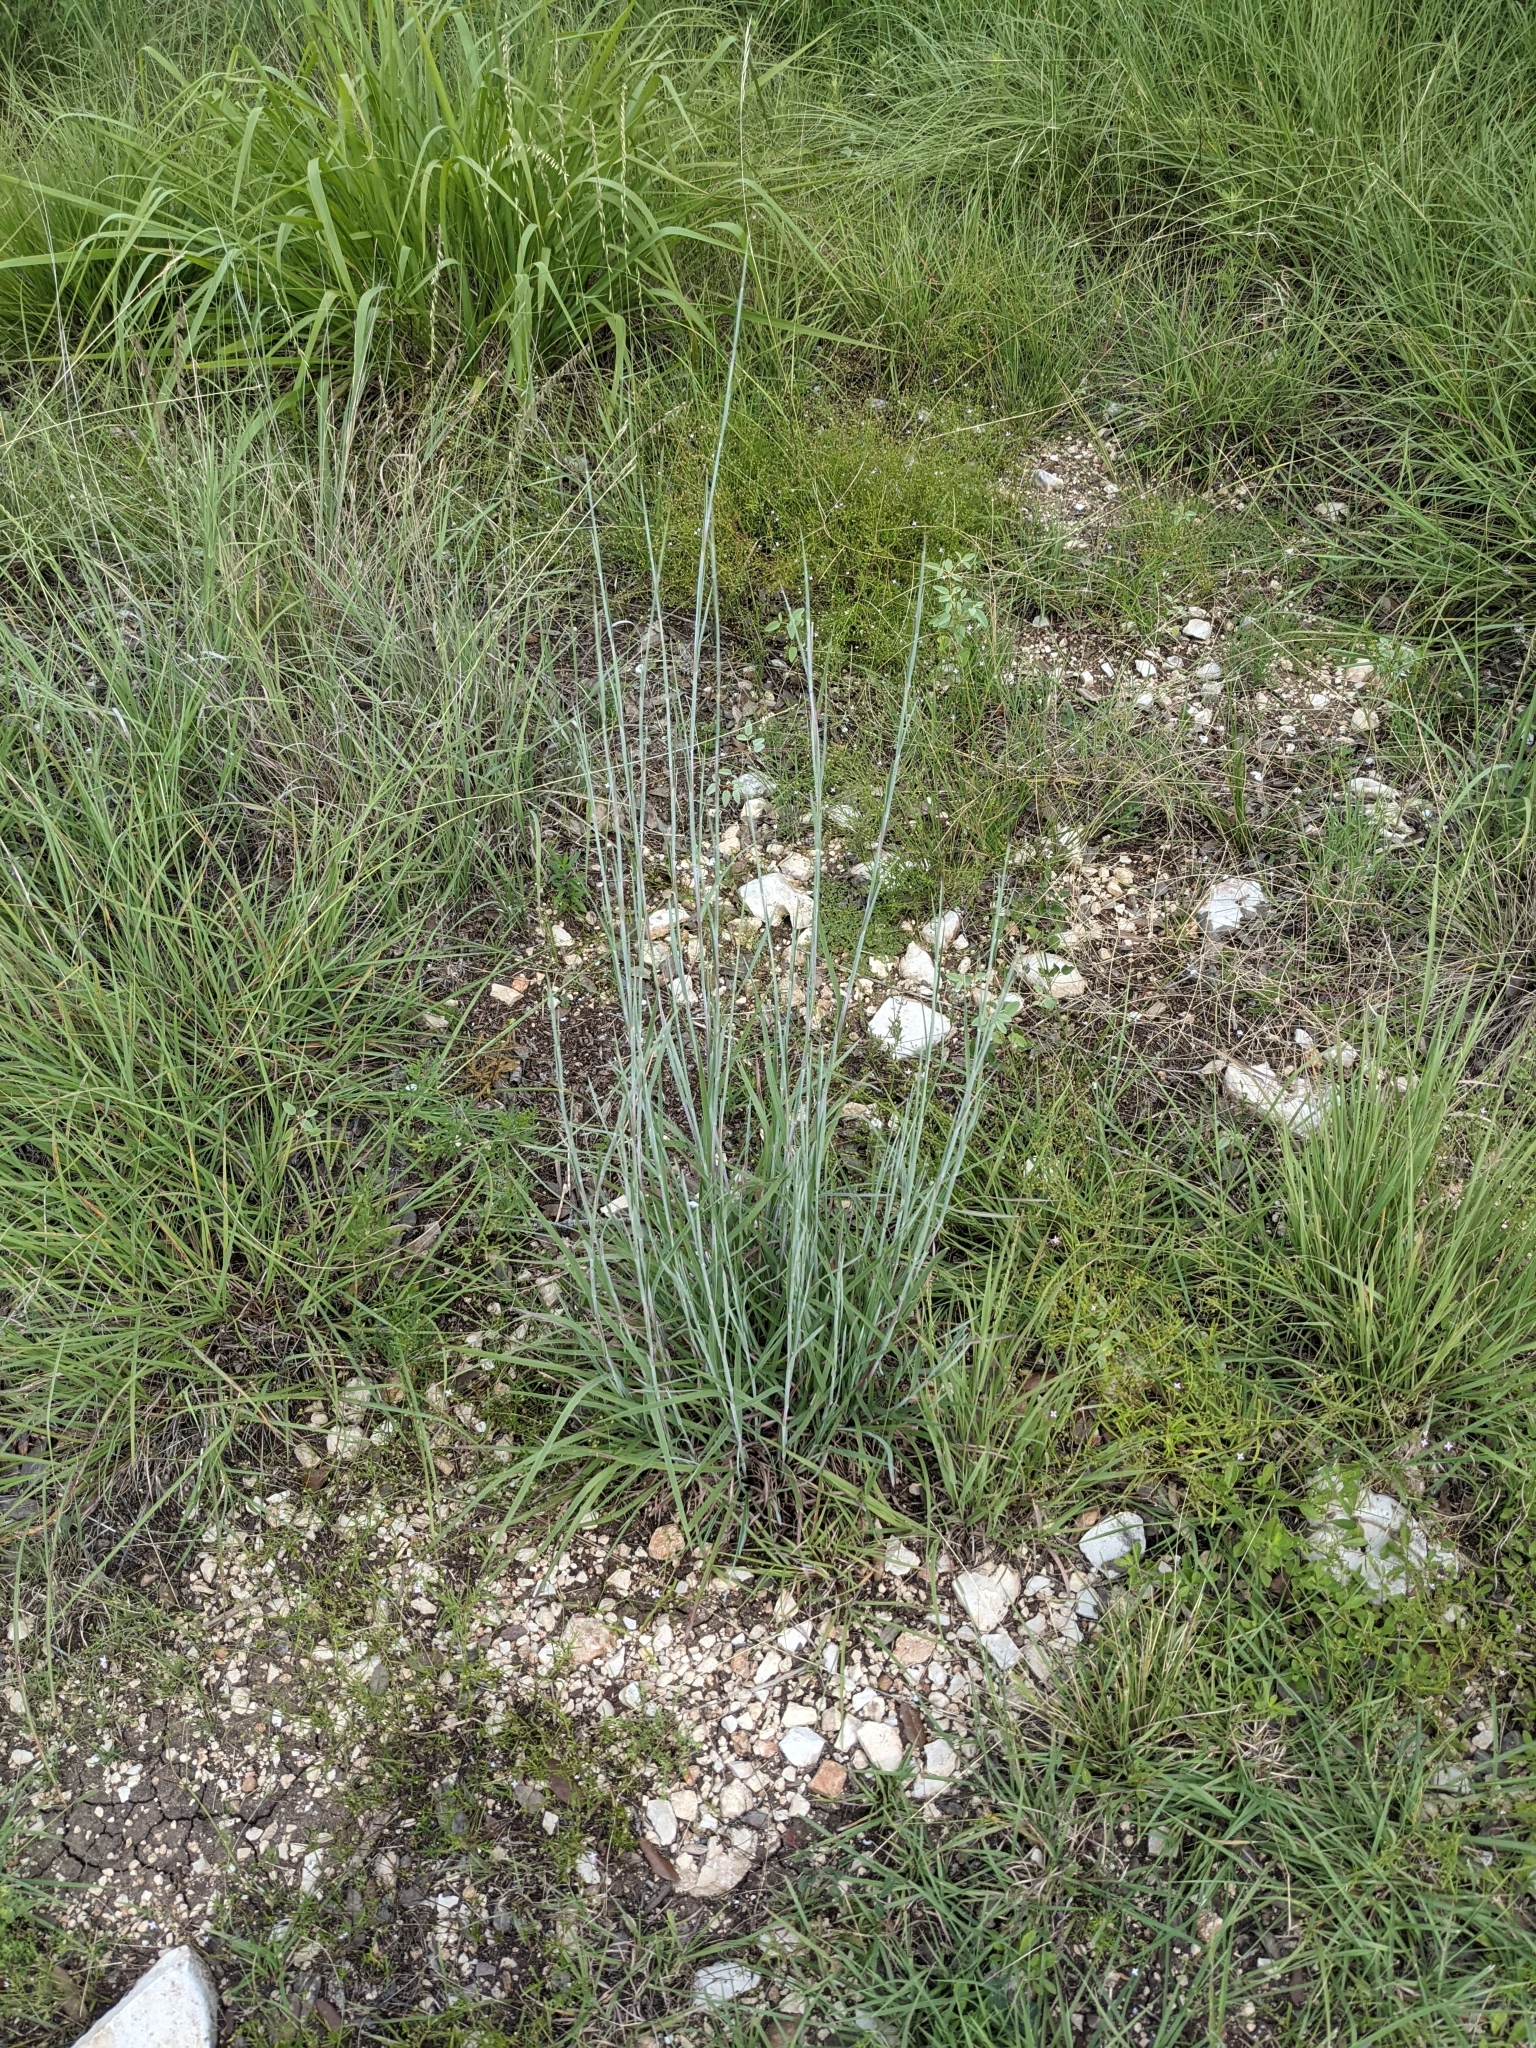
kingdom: Plantae
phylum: Tracheophyta
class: Liliopsida
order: Poales
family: Poaceae
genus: Schizachyrium
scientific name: Schizachyrium scoparium
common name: Little bluestem
